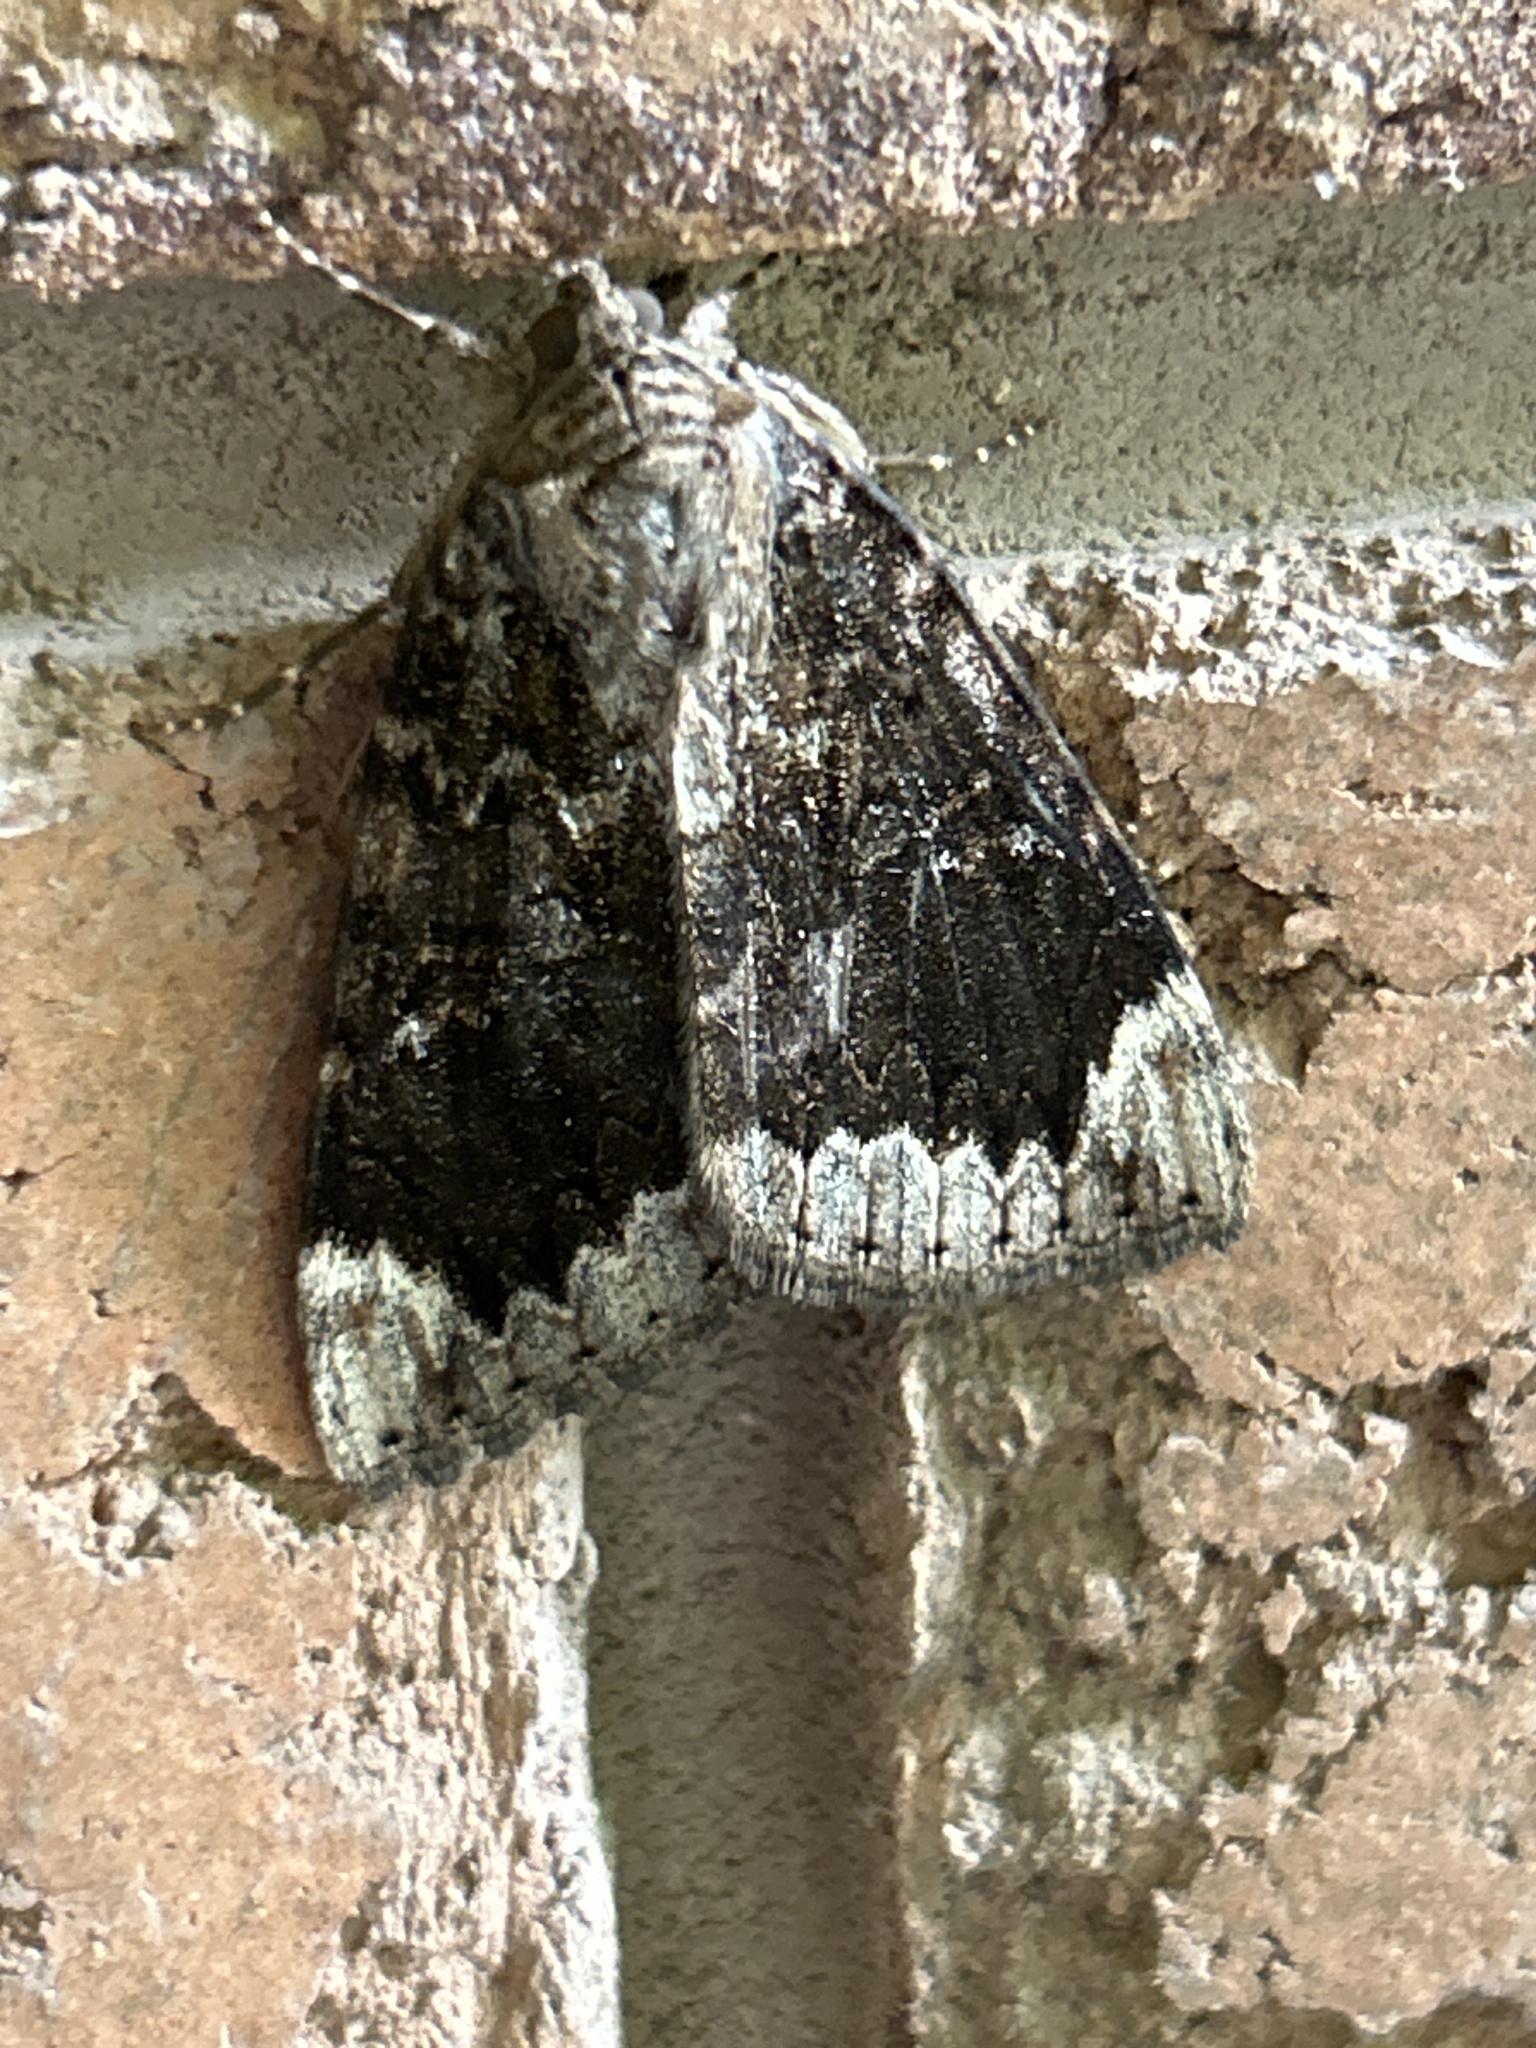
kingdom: Animalia
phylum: Arthropoda
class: Insecta
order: Lepidoptera
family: Erebidae
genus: Catocala
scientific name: Catocala innubens
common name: Betrothed underwing
